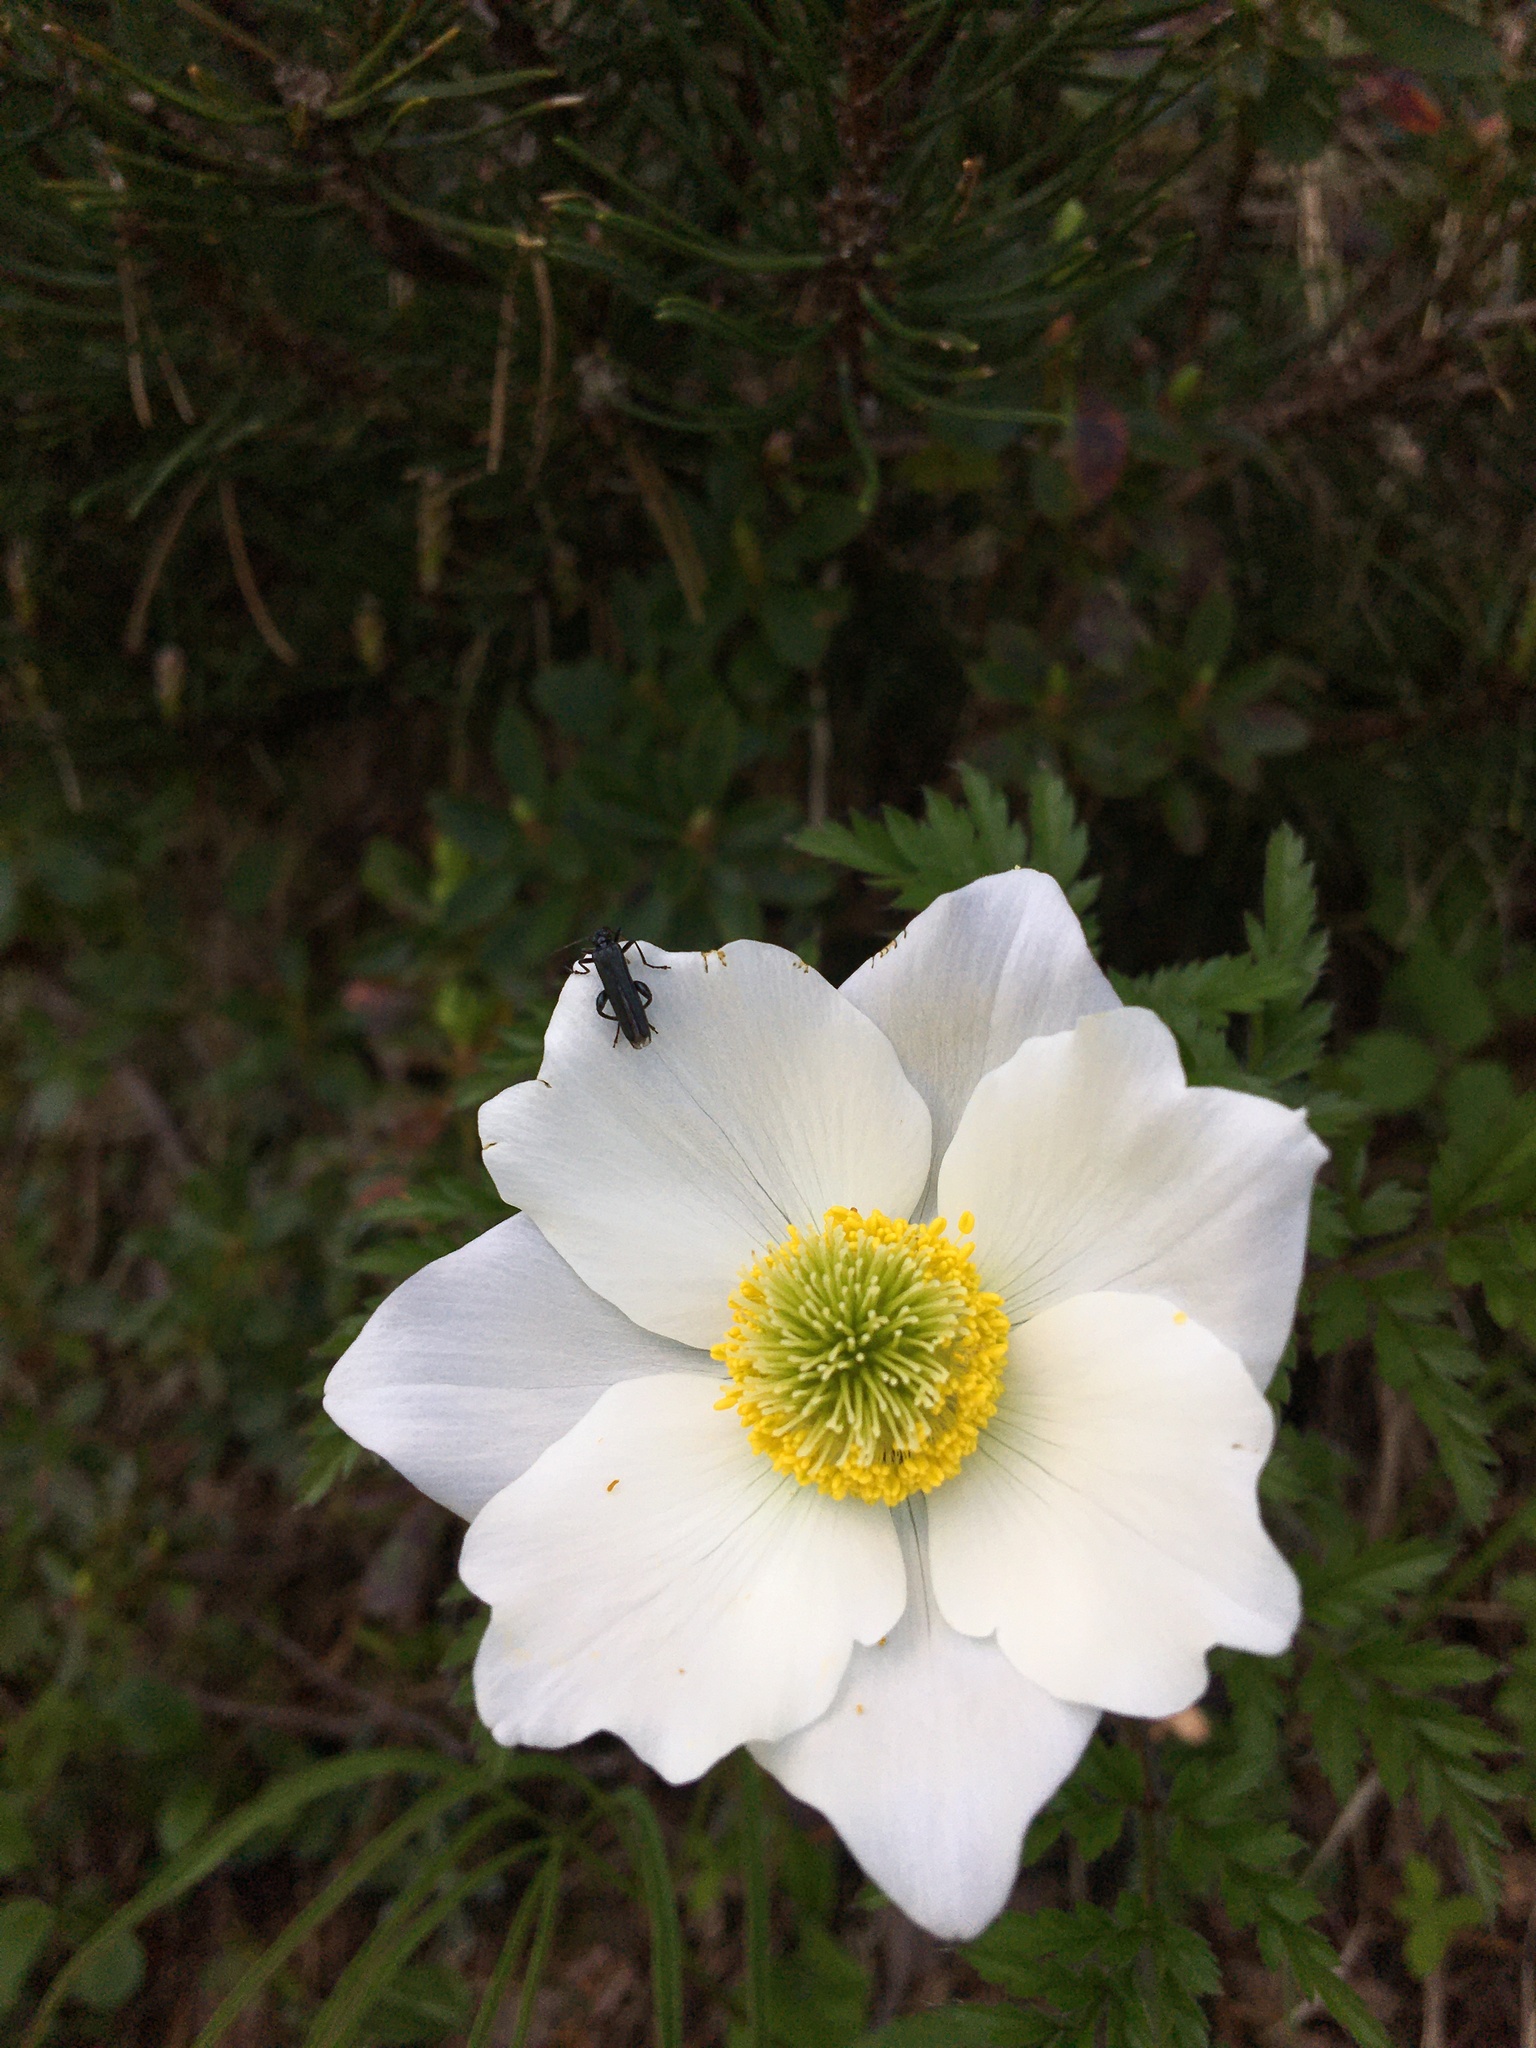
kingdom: Plantae
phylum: Tracheophyta
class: Magnoliopsida
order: Ranunculales
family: Ranunculaceae
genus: Pulsatilla
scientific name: Pulsatilla alpina
